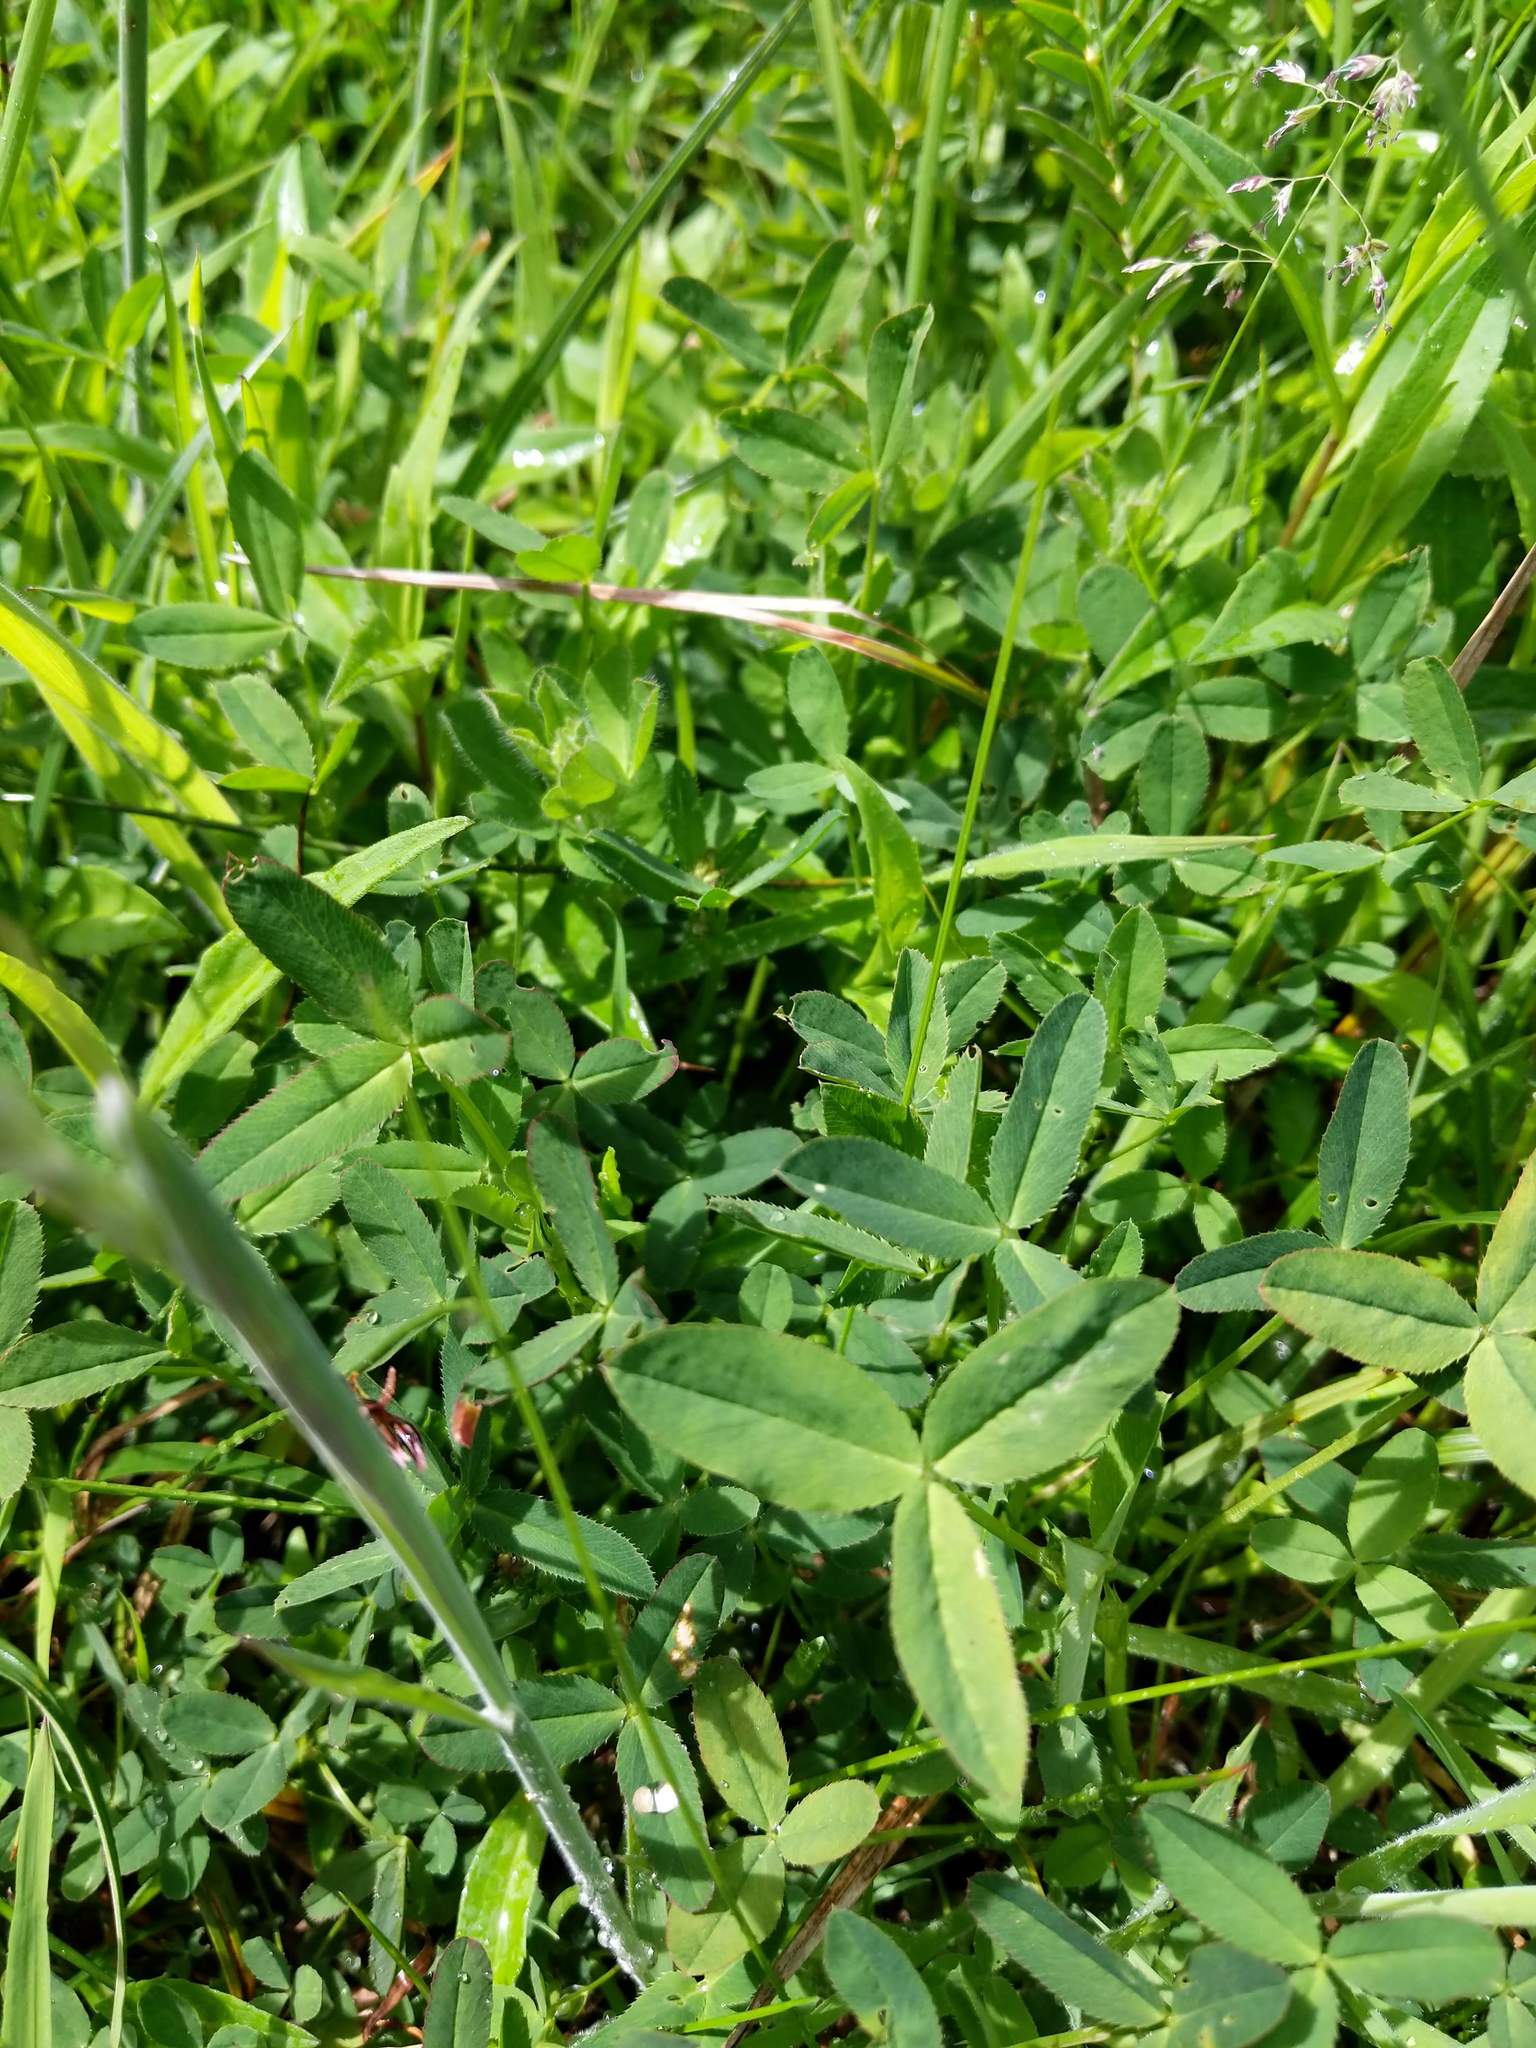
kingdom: Plantae
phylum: Tracheophyta
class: Magnoliopsida
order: Fabales
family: Fabaceae
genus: Trifolium
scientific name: Trifolium wormskioldii
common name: Springbank clover
